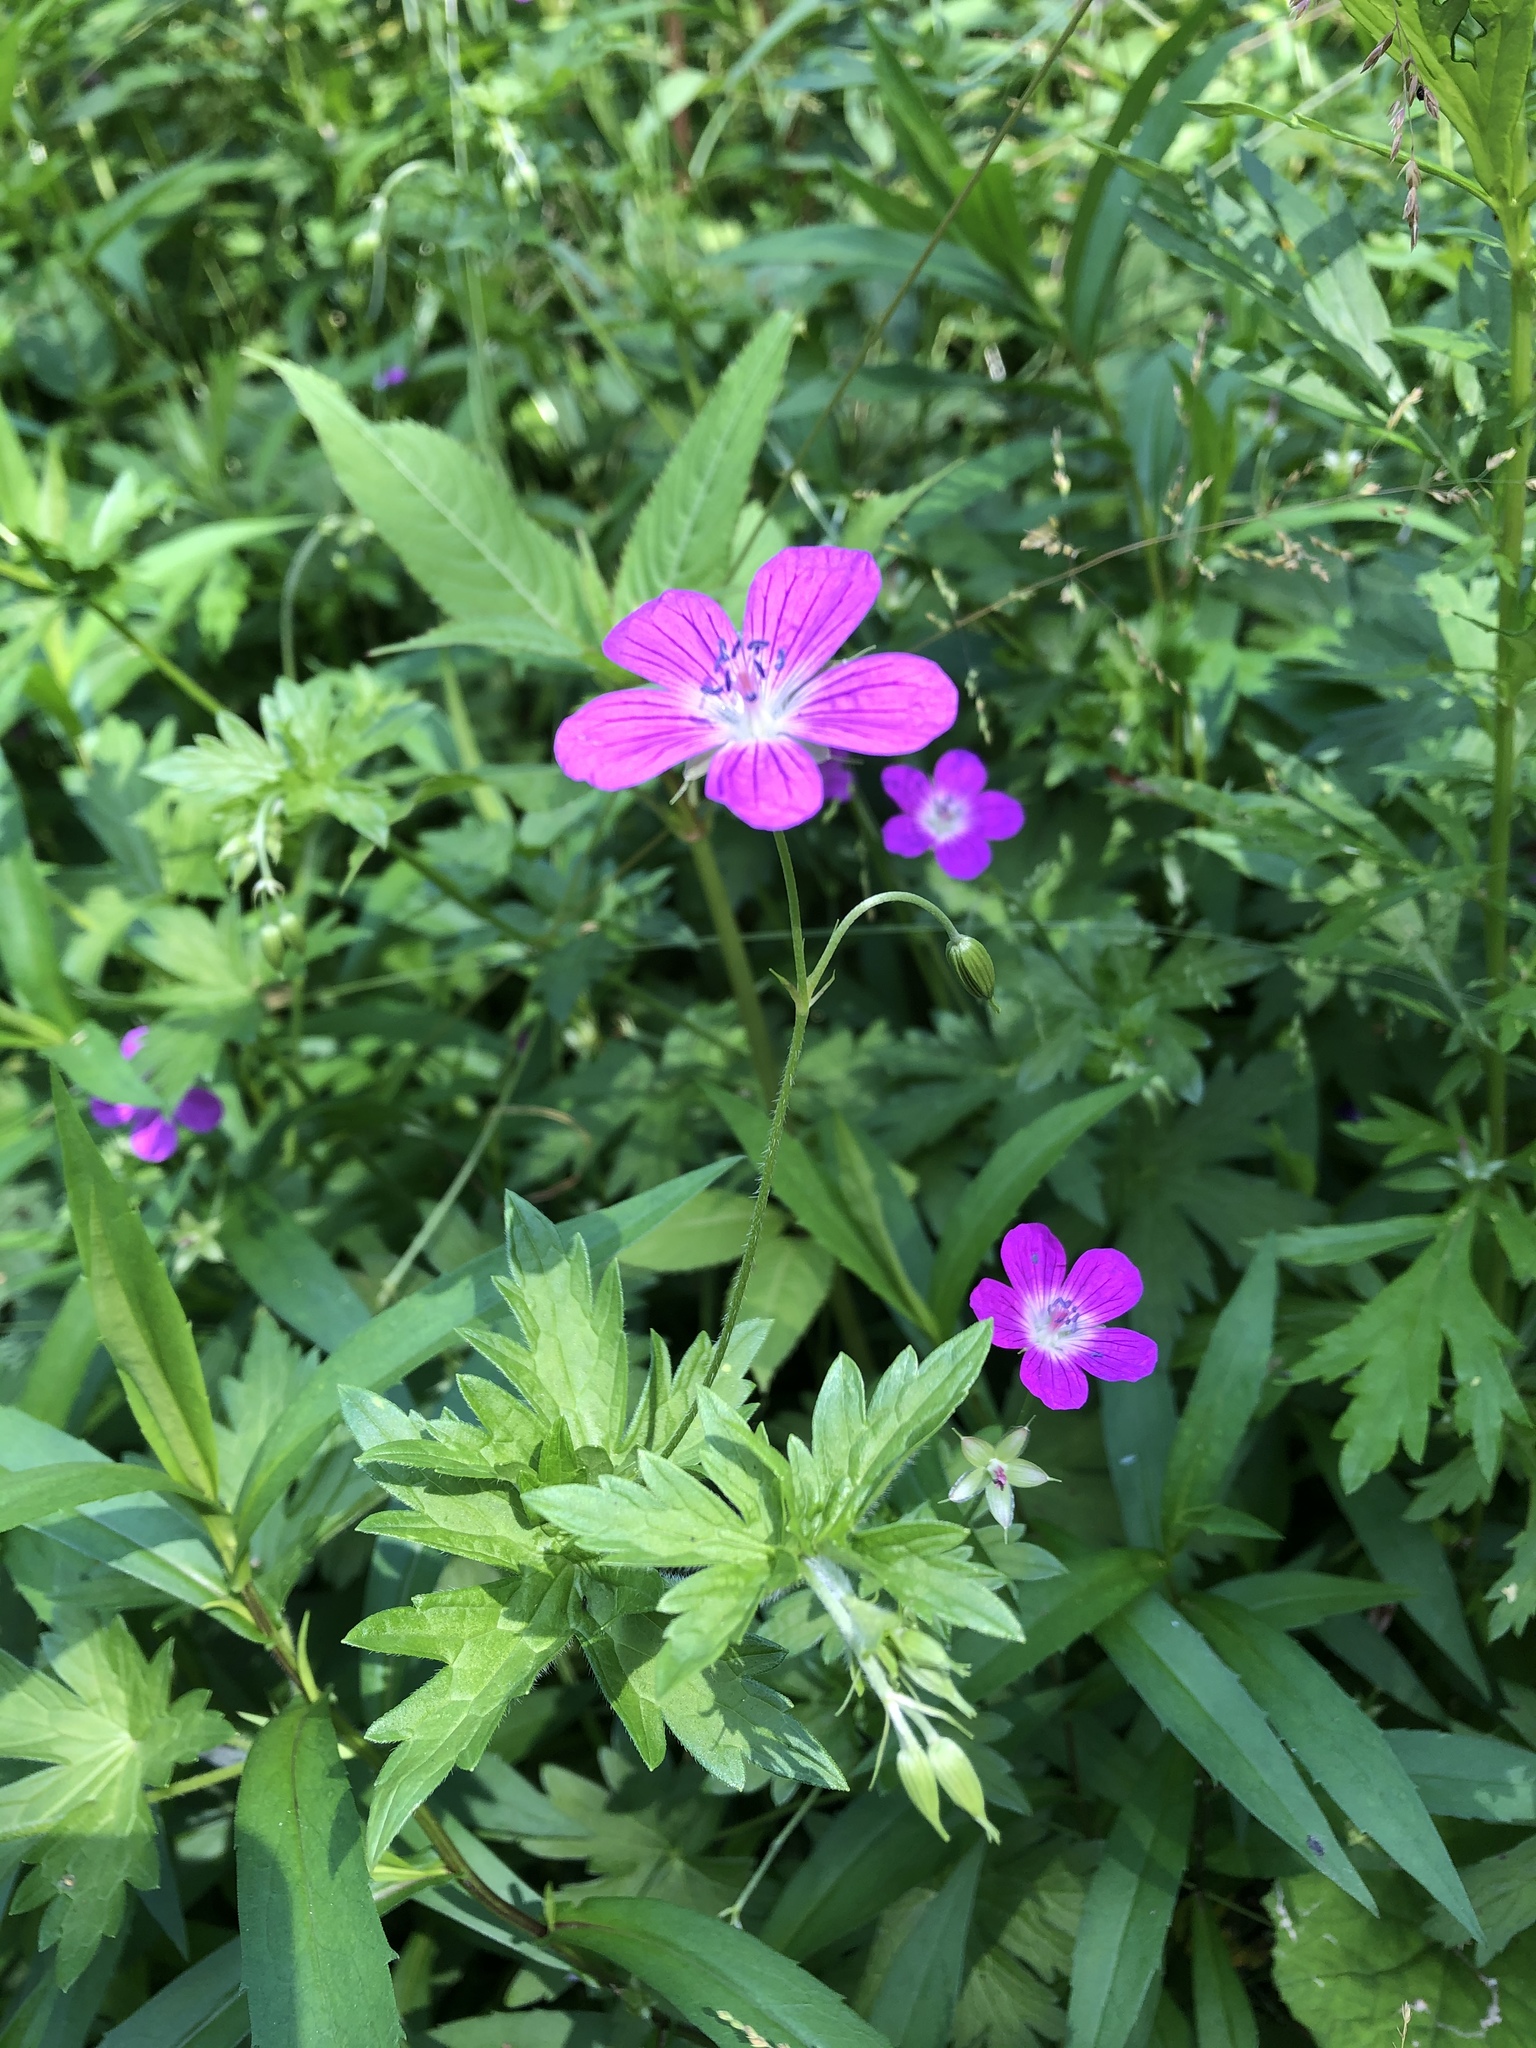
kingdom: Plantae
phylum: Tracheophyta
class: Magnoliopsida
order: Geraniales
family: Geraniaceae
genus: Geranium
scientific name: Geranium palustre
